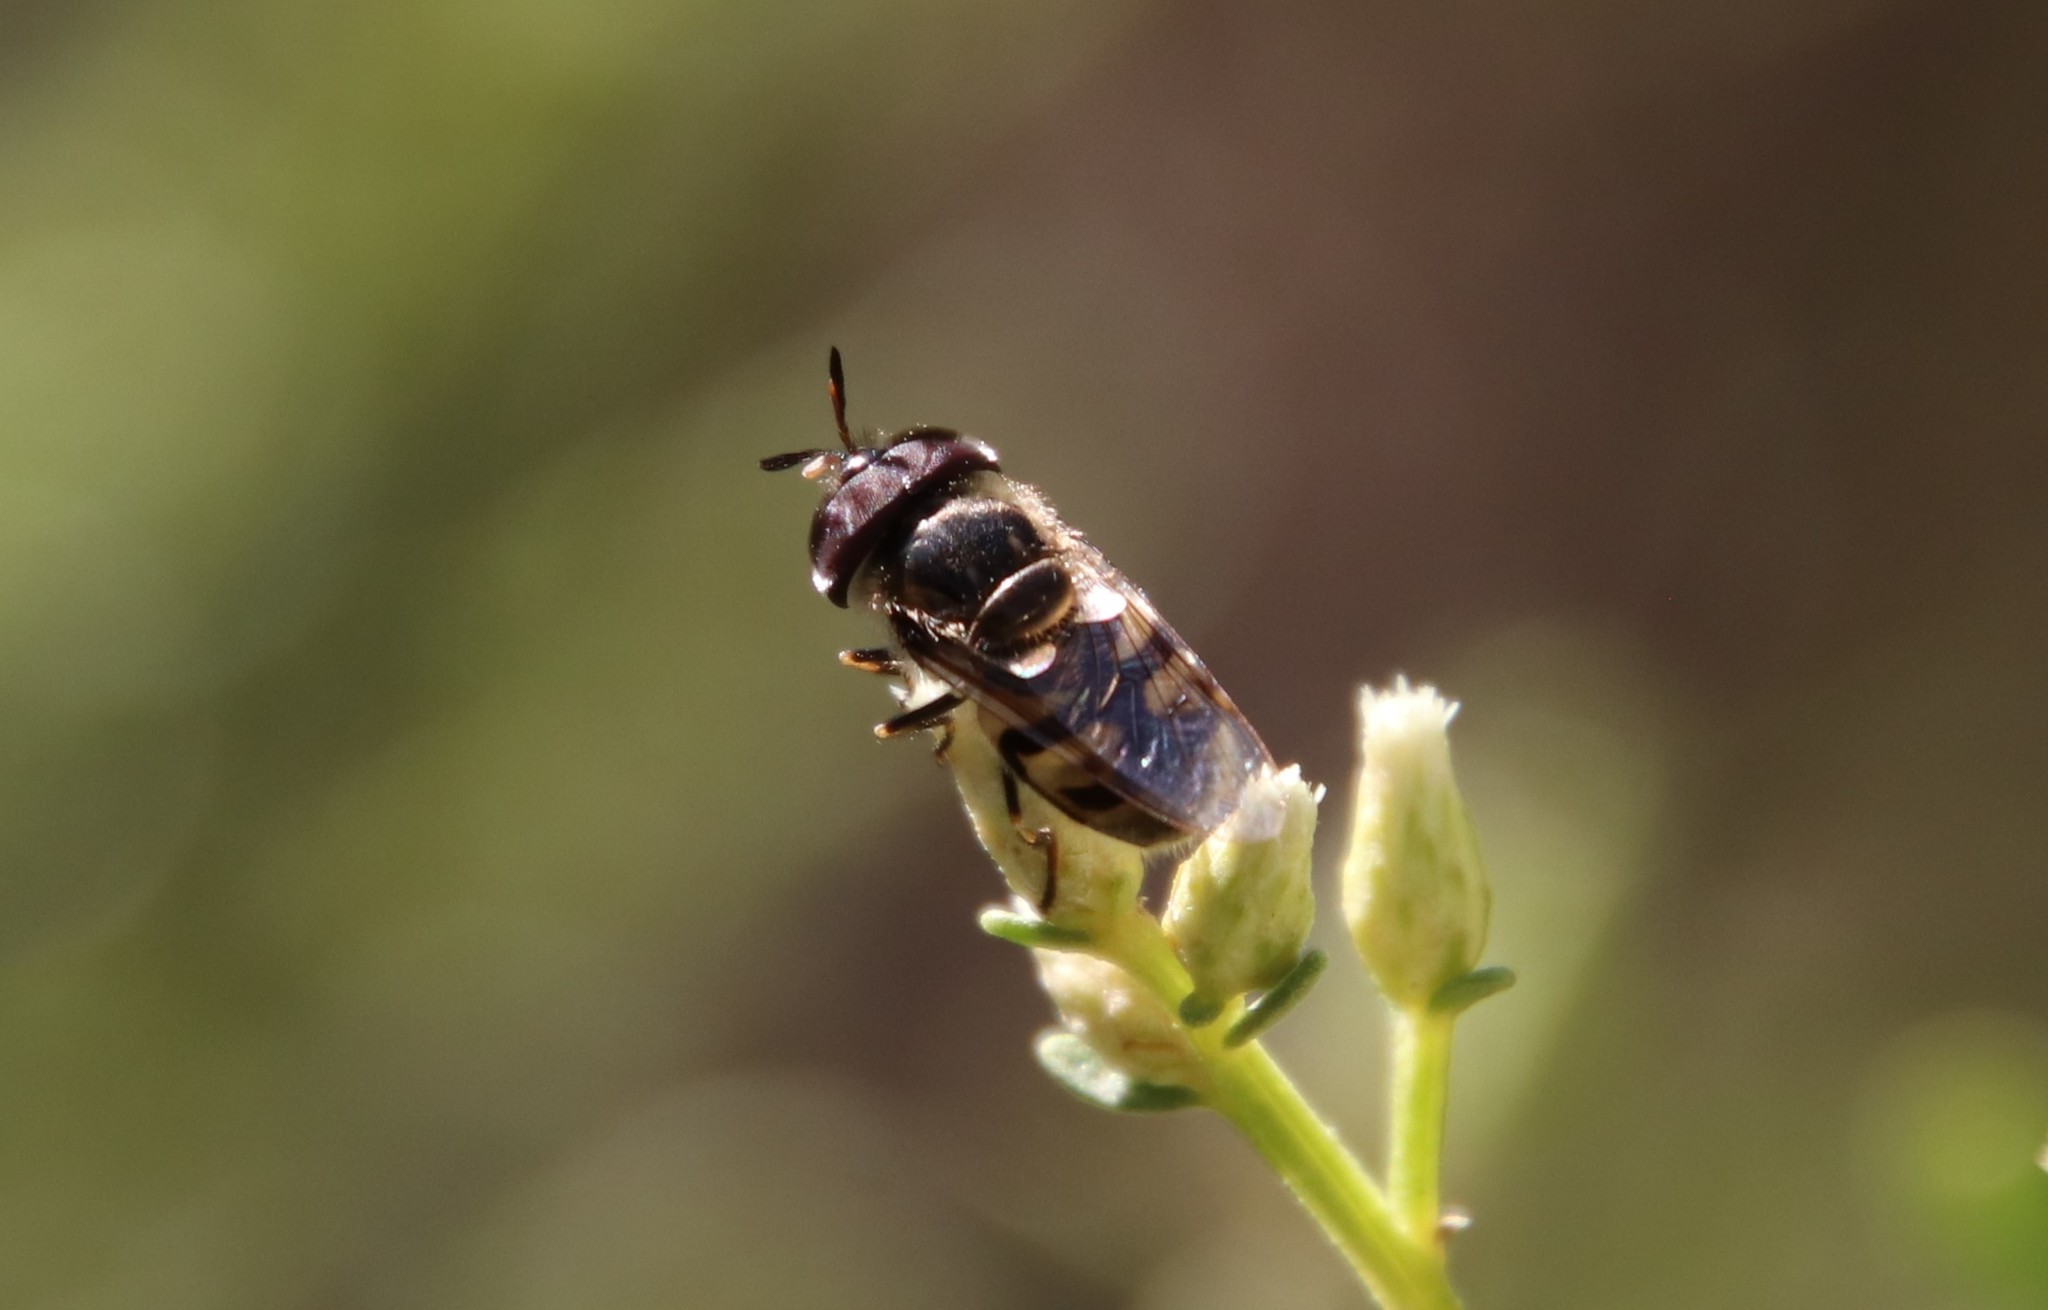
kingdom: Animalia
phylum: Arthropoda
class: Insecta
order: Diptera
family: Syrphidae
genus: Copestylum
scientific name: Copestylum marginatum
